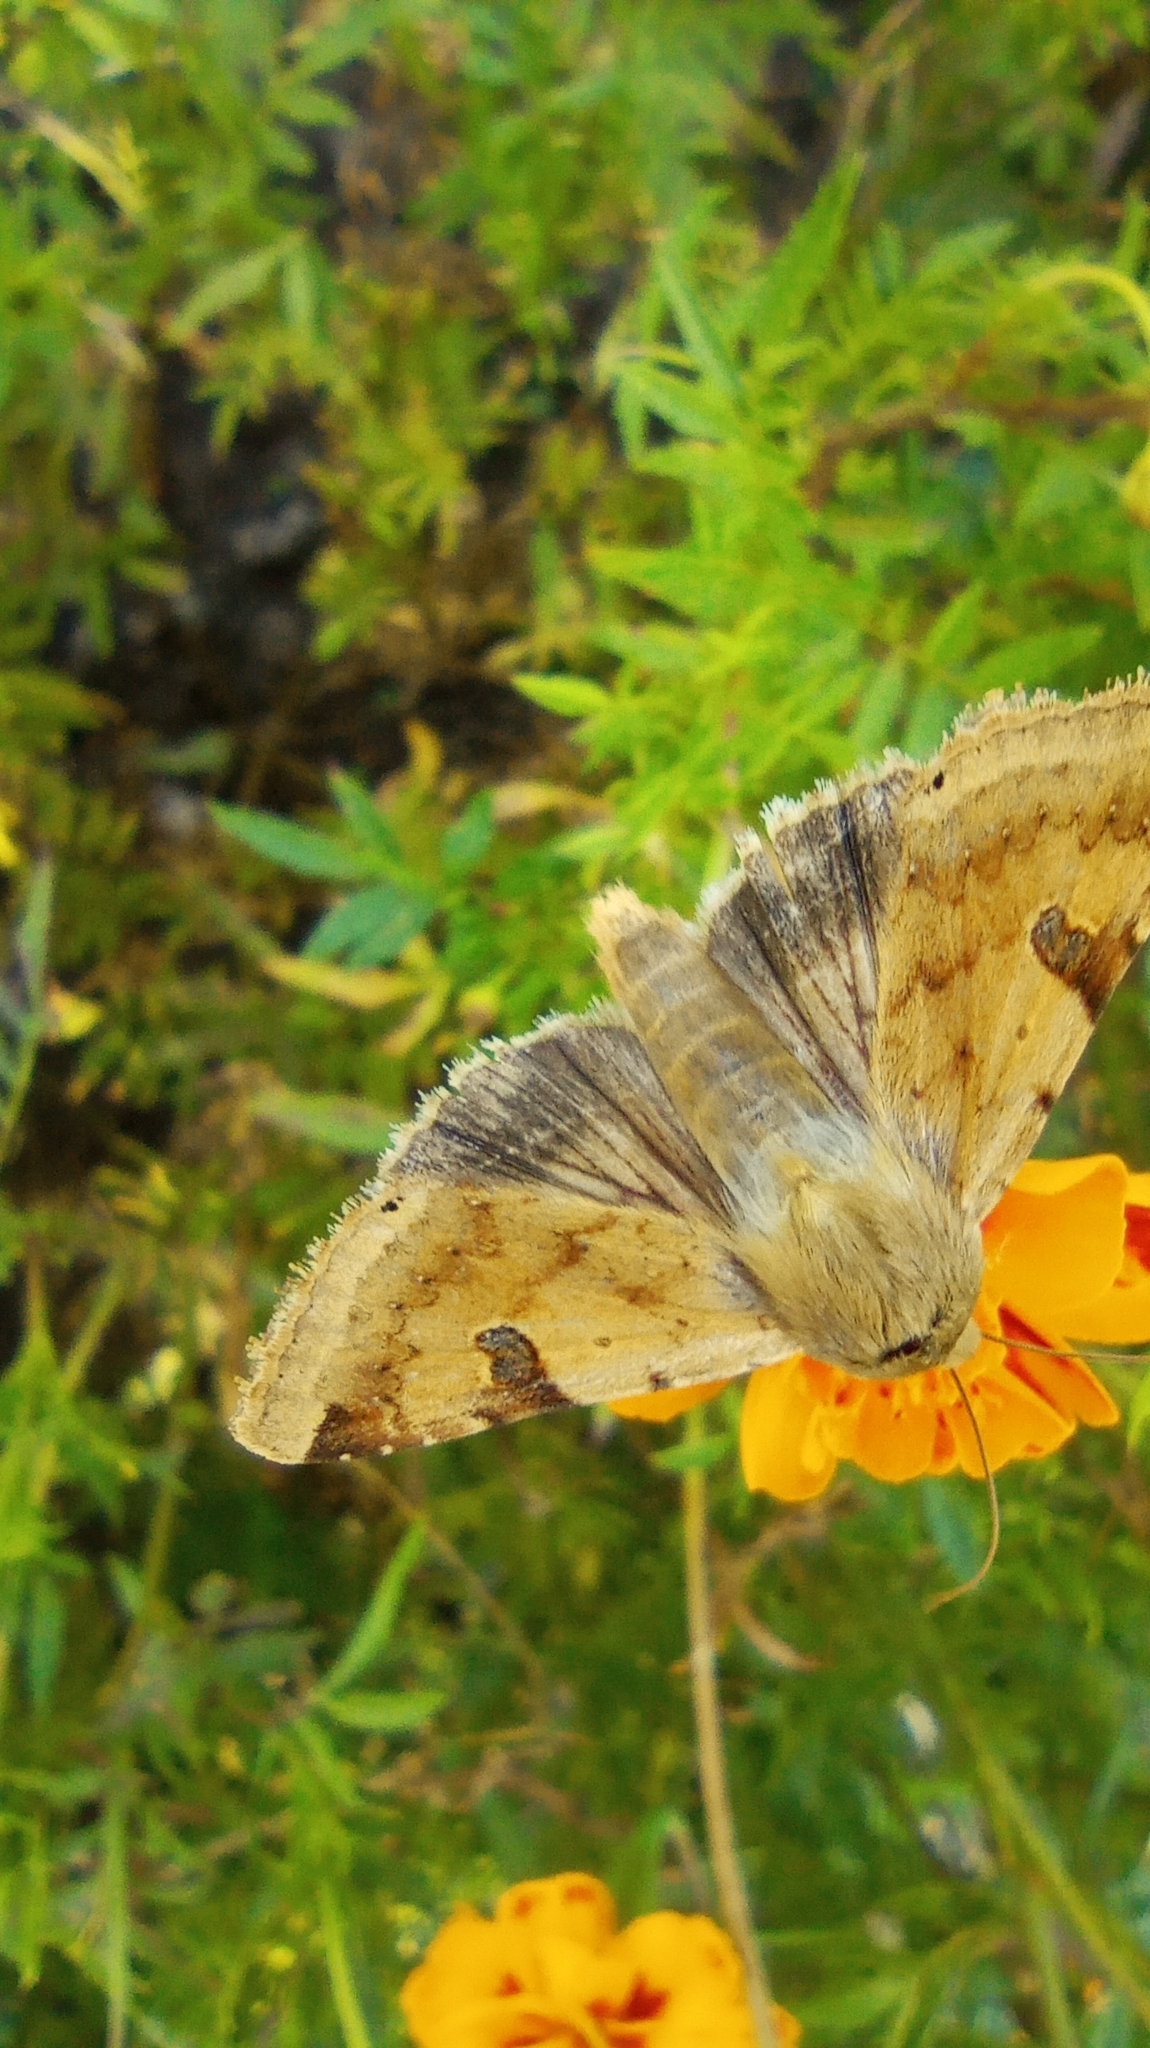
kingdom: Animalia
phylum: Arthropoda
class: Insecta
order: Lepidoptera
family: Noctuidae
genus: Heliothis
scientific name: Heliothis peltigera
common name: Bordered straw
